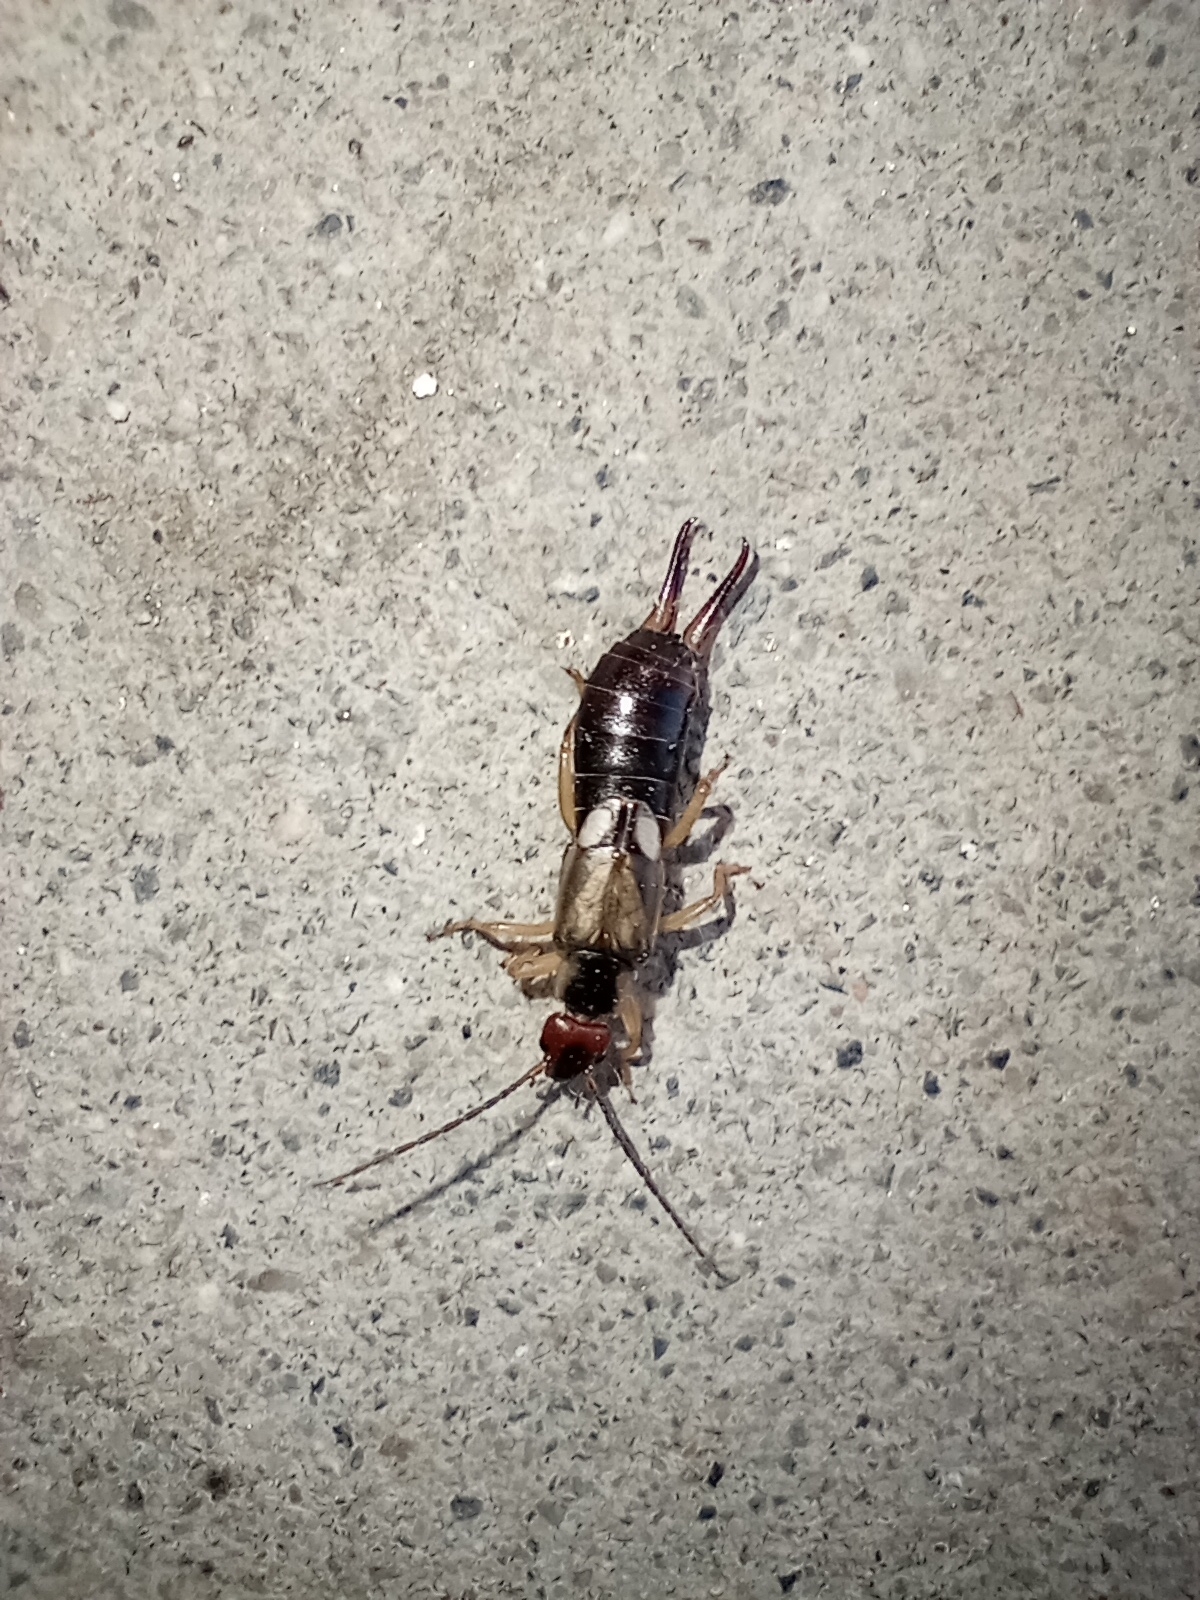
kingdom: Animalia
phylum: Arthropoda
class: Insecta
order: Dermaptera
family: Forficulidae
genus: Forficula
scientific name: Forficula dentata
